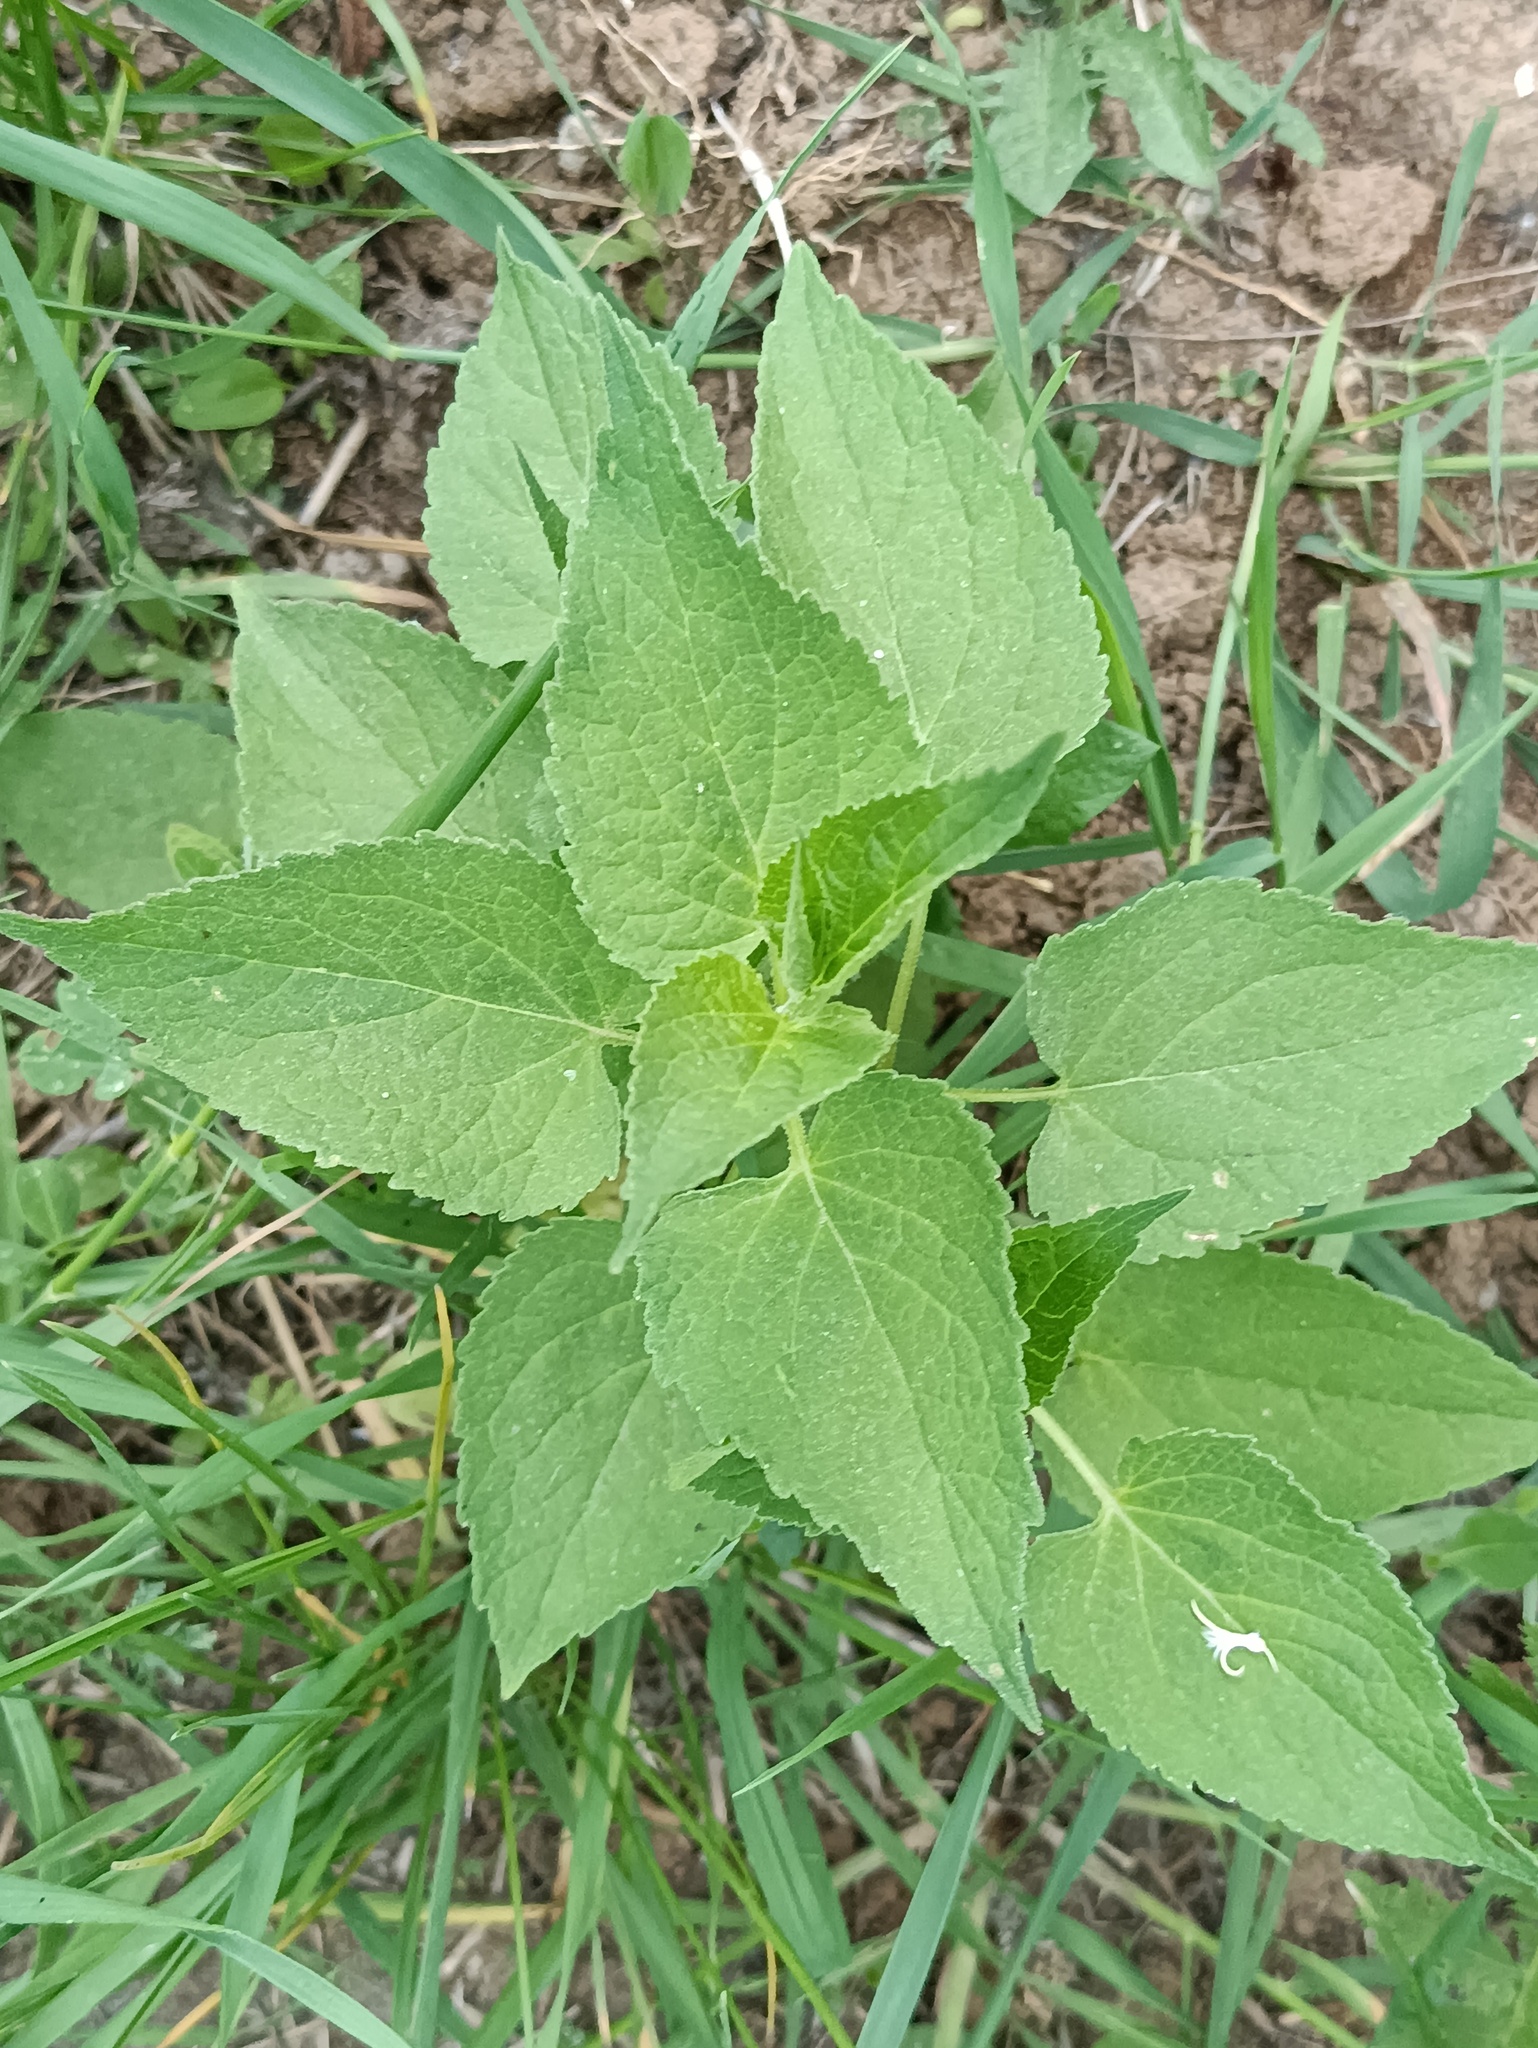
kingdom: Plantae
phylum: Tracheophyta
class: Magnoliopsida
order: Asterales
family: Campanulaceae
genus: Campanula
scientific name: Campanula rapunculoides
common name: Creeping bellflower
